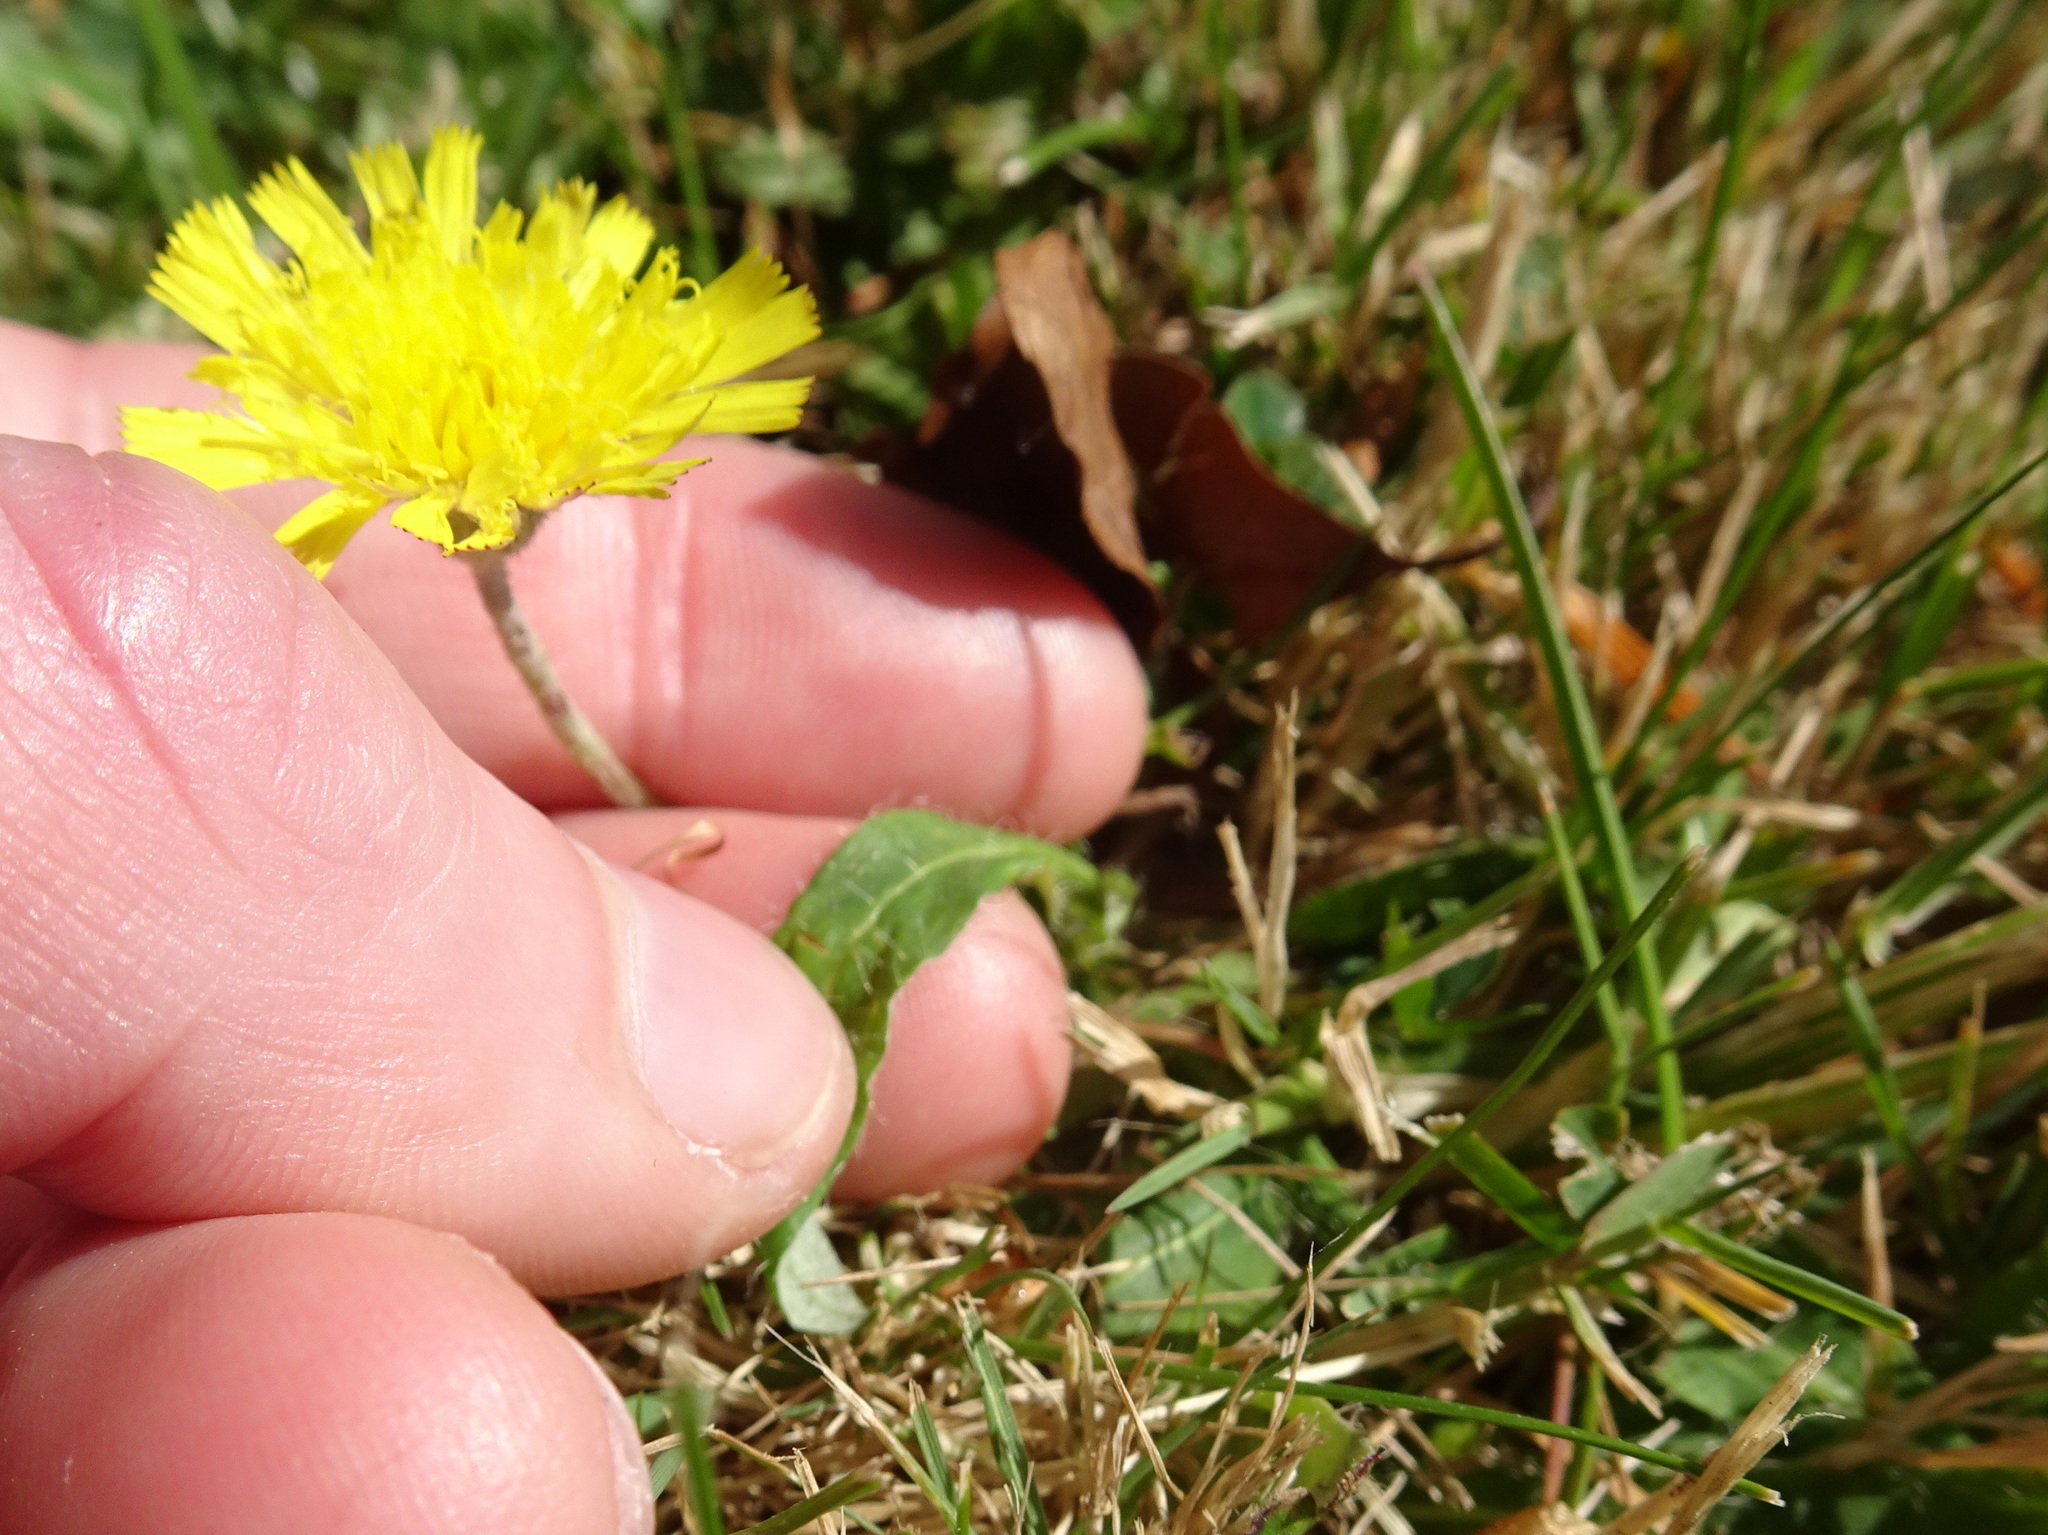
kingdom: Plantae
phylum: Tracheophyta
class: Magnoliopsida
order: Asterales
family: Asteraceae
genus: Pilosella
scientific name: Pilosella officinarum
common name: Mouse-ear hawkweed
